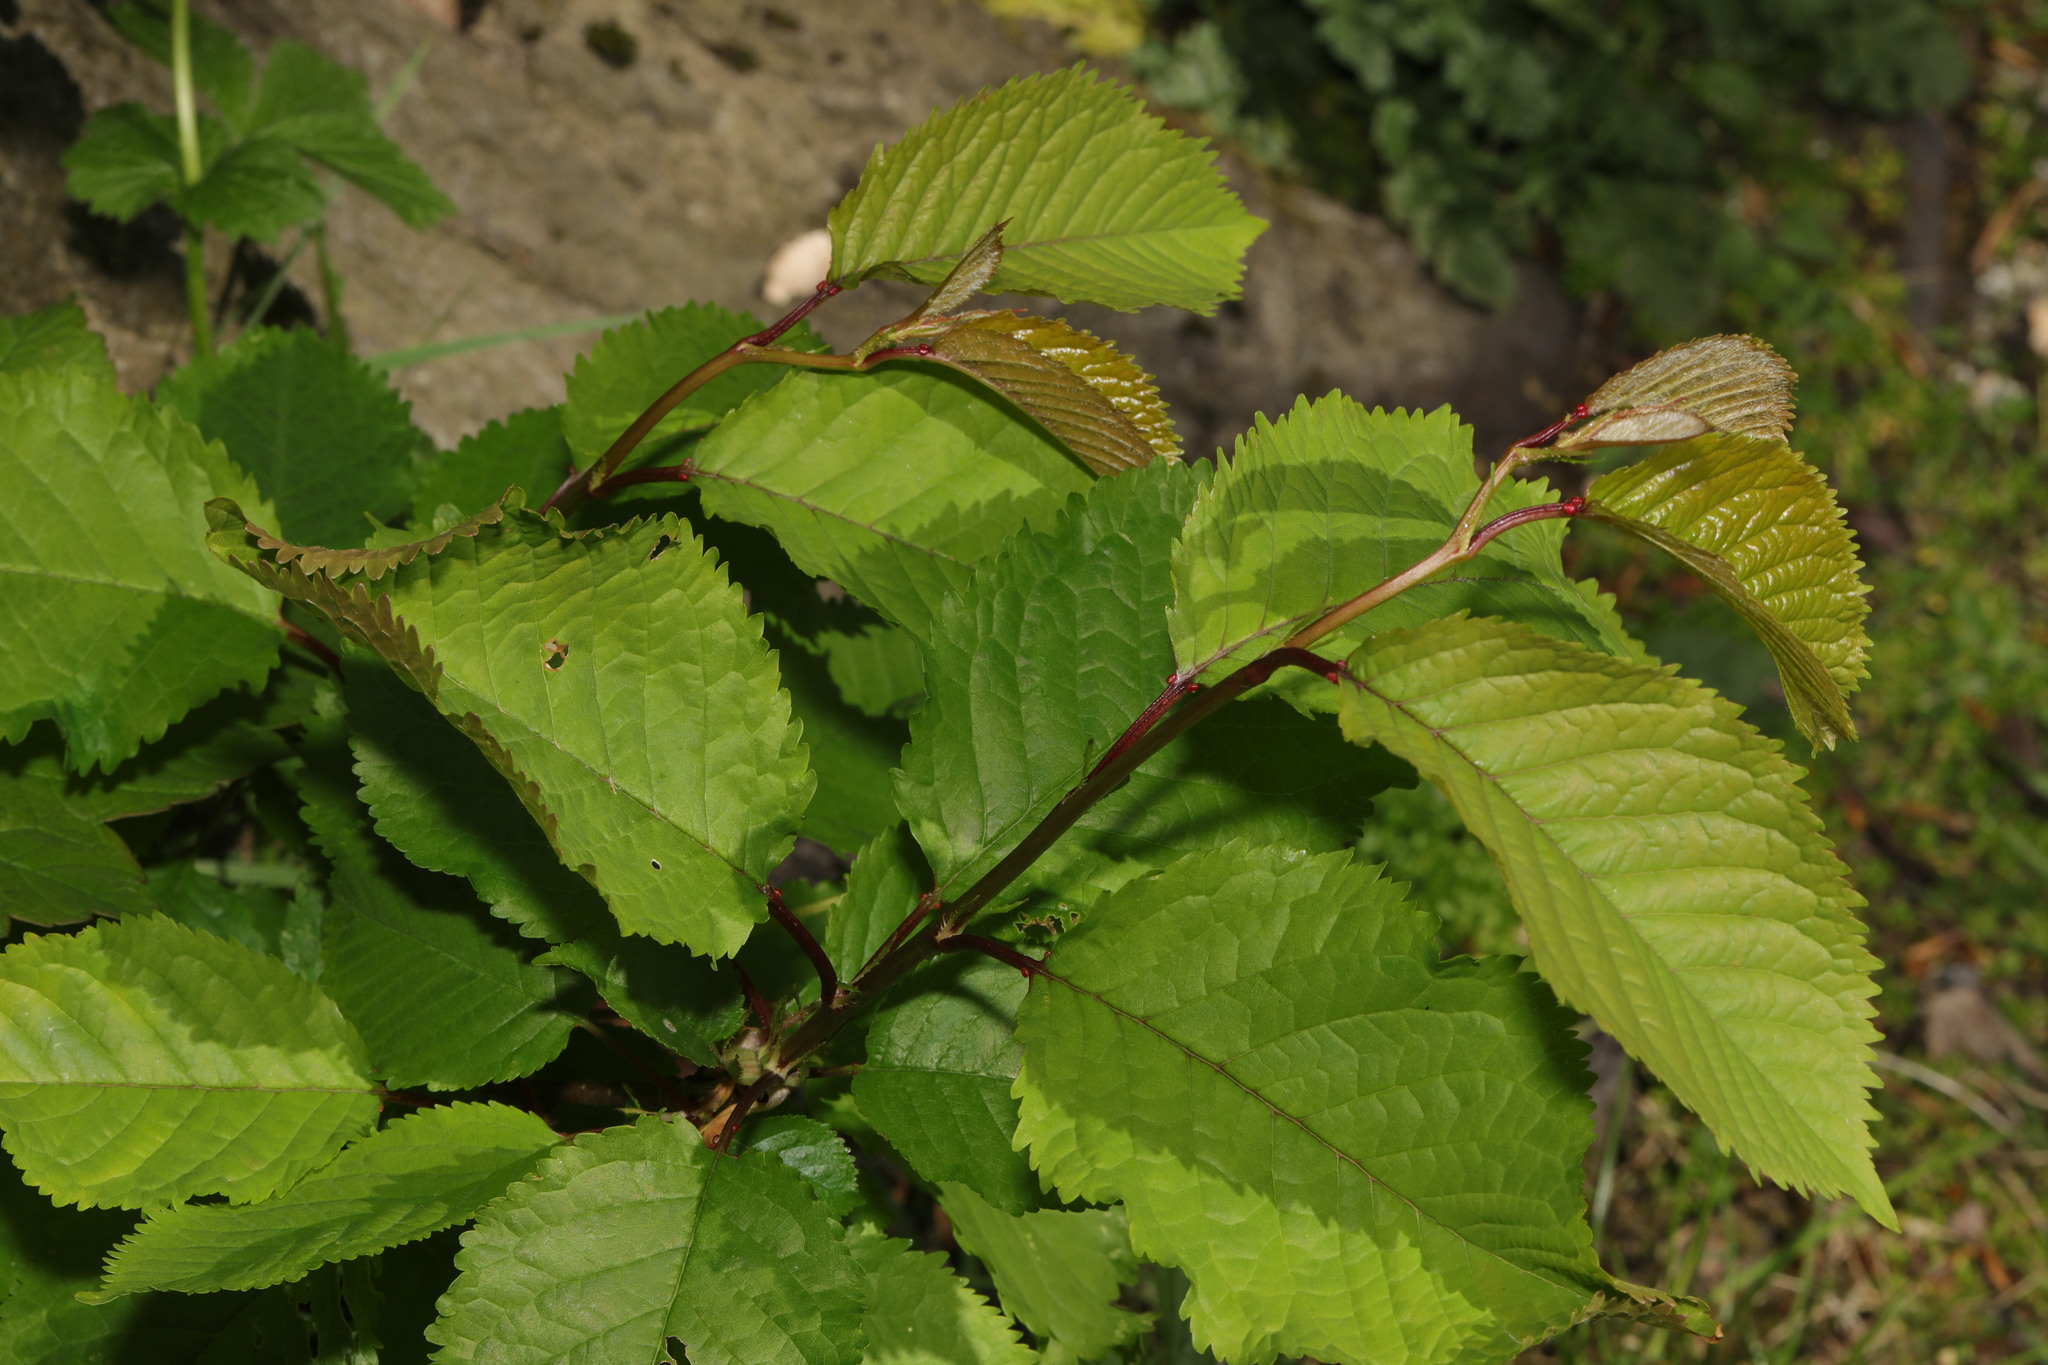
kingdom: Plantae
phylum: Tracheophyta
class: Magnoliopsida
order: Rosales
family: Rosaceae
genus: Prunus
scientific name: Prunus avium
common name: Sweet cherry
